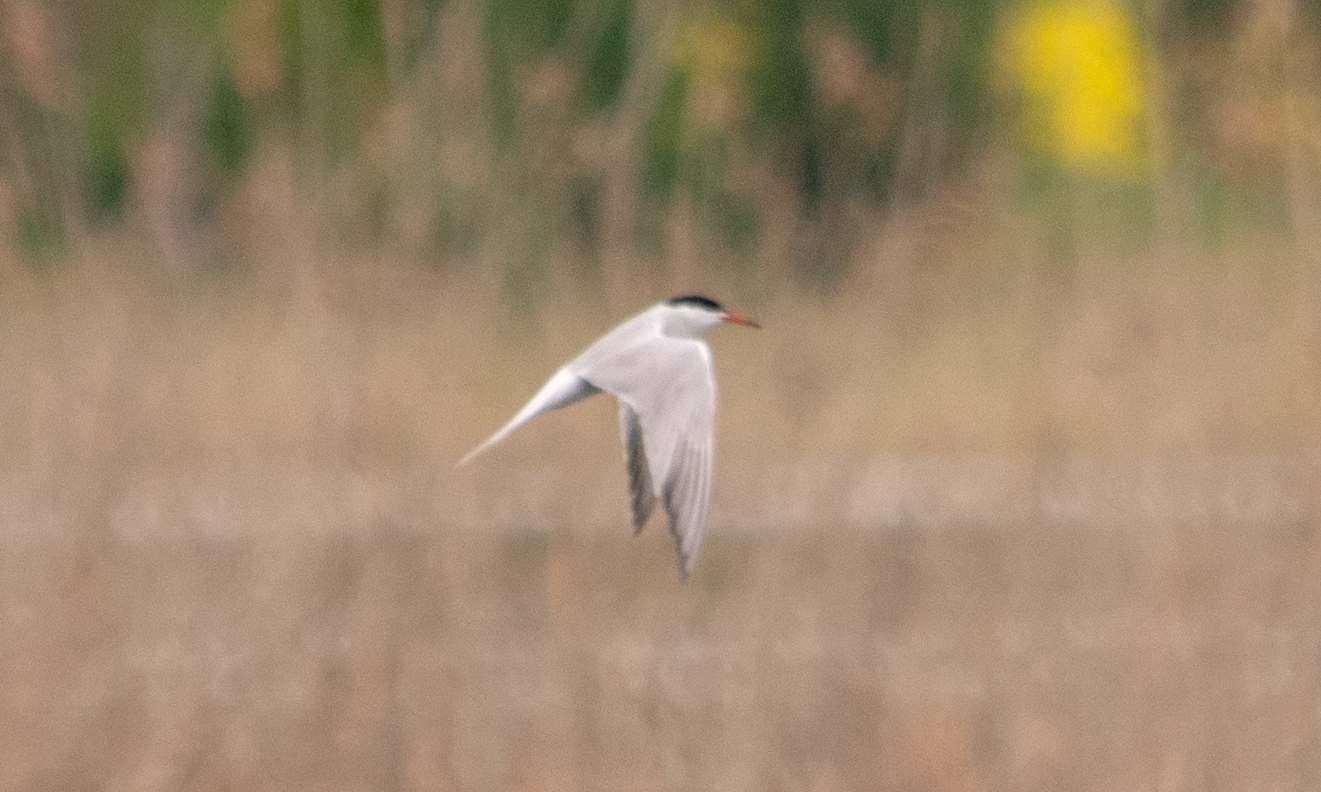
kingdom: Animalia
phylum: Chordata
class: Aves
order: Charadriiformes
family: Laridae
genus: Sterna
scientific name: Sterna hirundo
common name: Common tern
